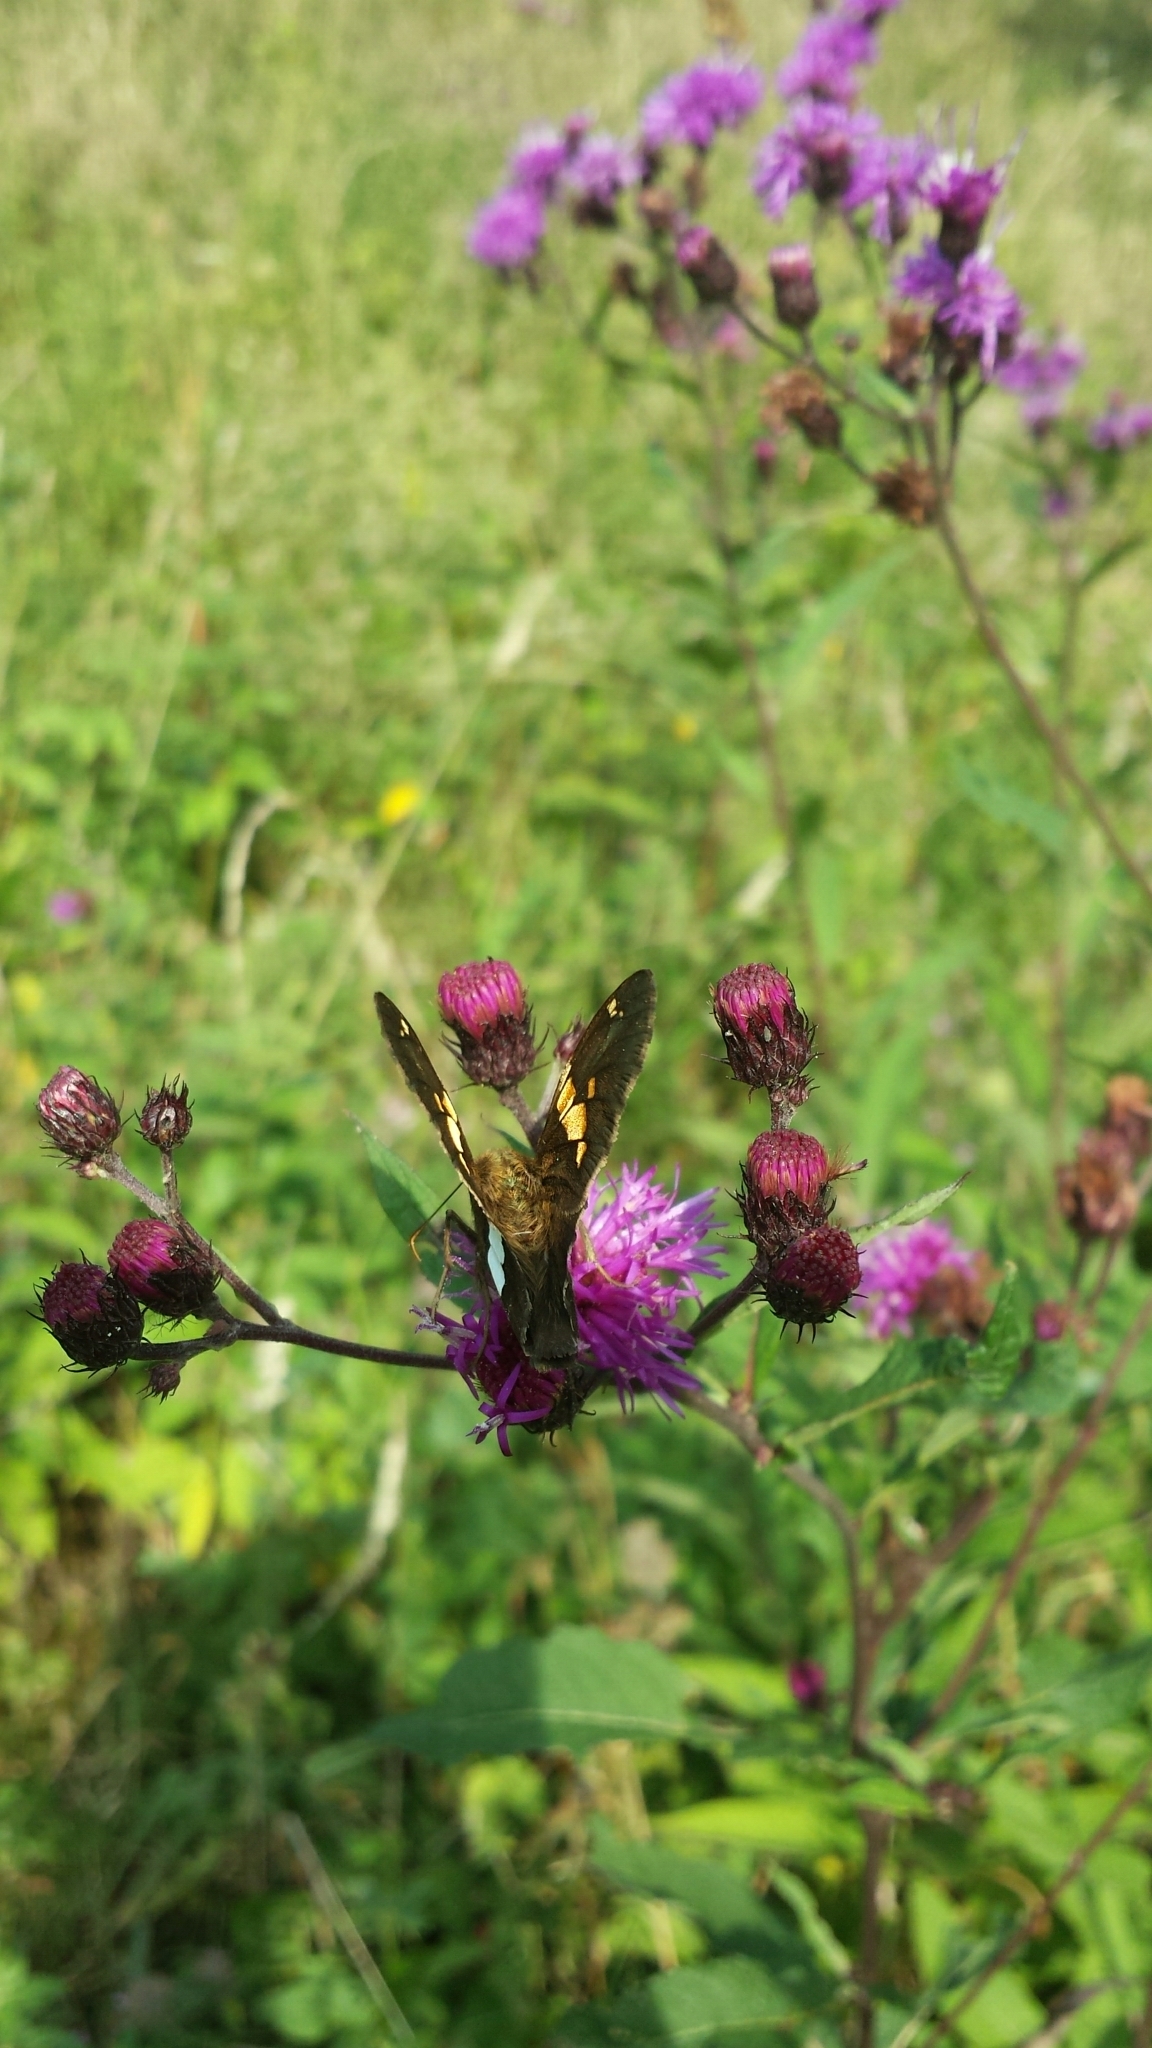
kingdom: Animalia
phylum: Arthropoda
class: Insecta
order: Lepidoptera
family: Hesperiidae
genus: Epargyreus
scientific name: Epargyreus clarus
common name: Silver-spotted skipper
